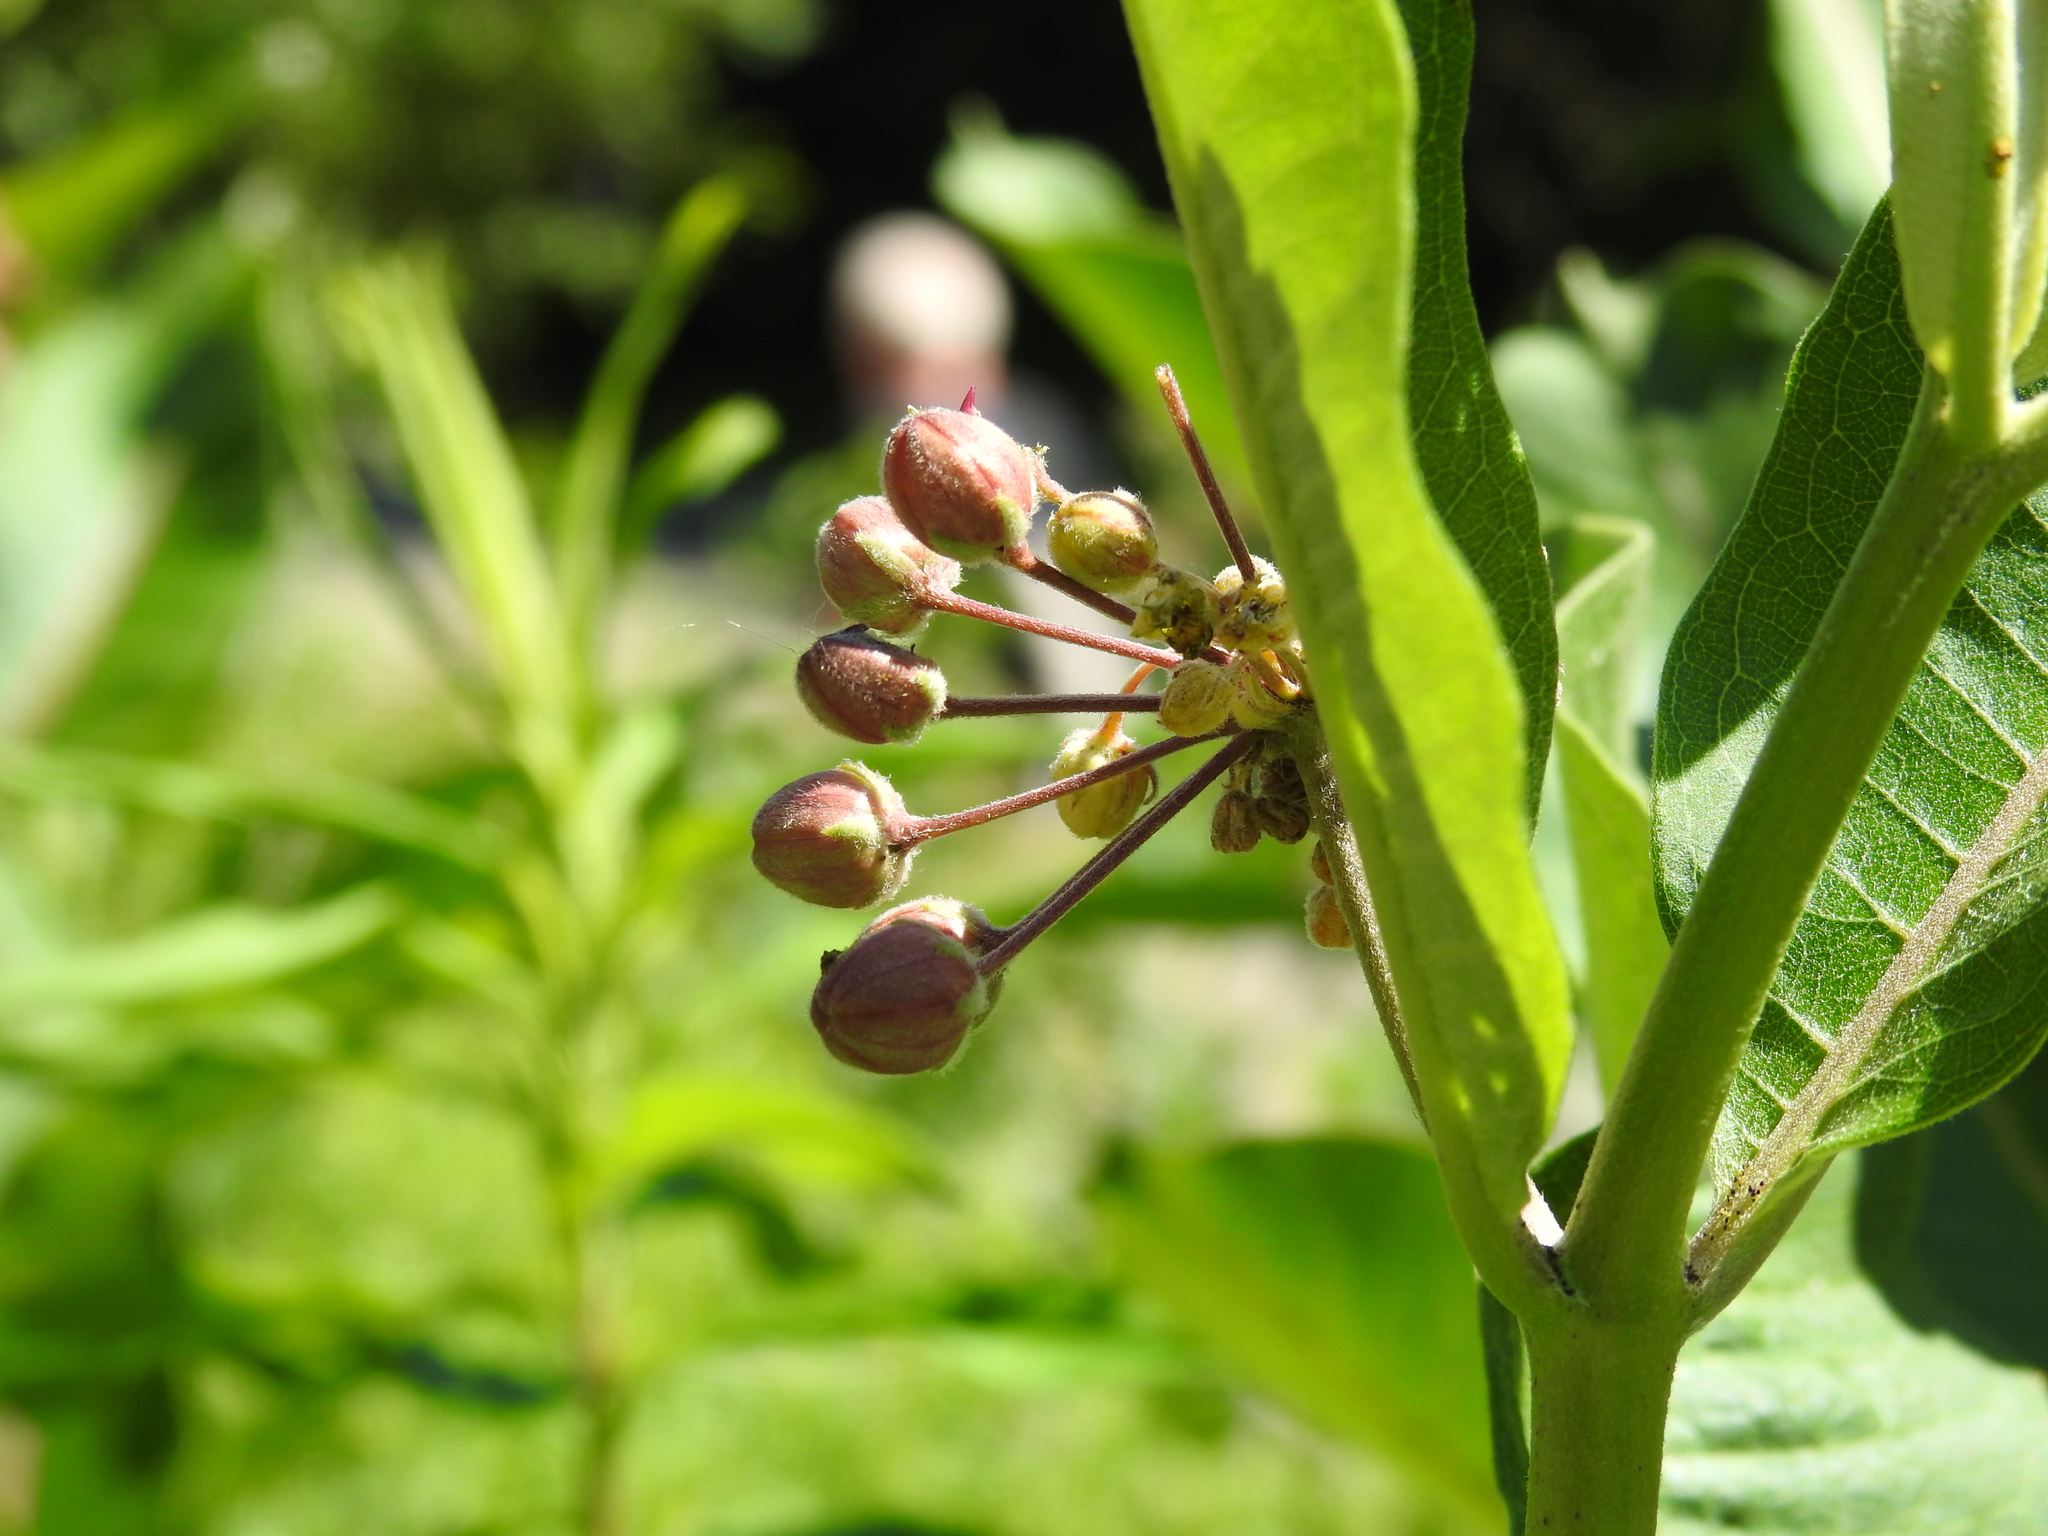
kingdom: Animalia
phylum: Arthropoda
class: Insecta
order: Diptera
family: Cecidomyiidae
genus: Prodiplosis
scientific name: Prodiplosis floricola
